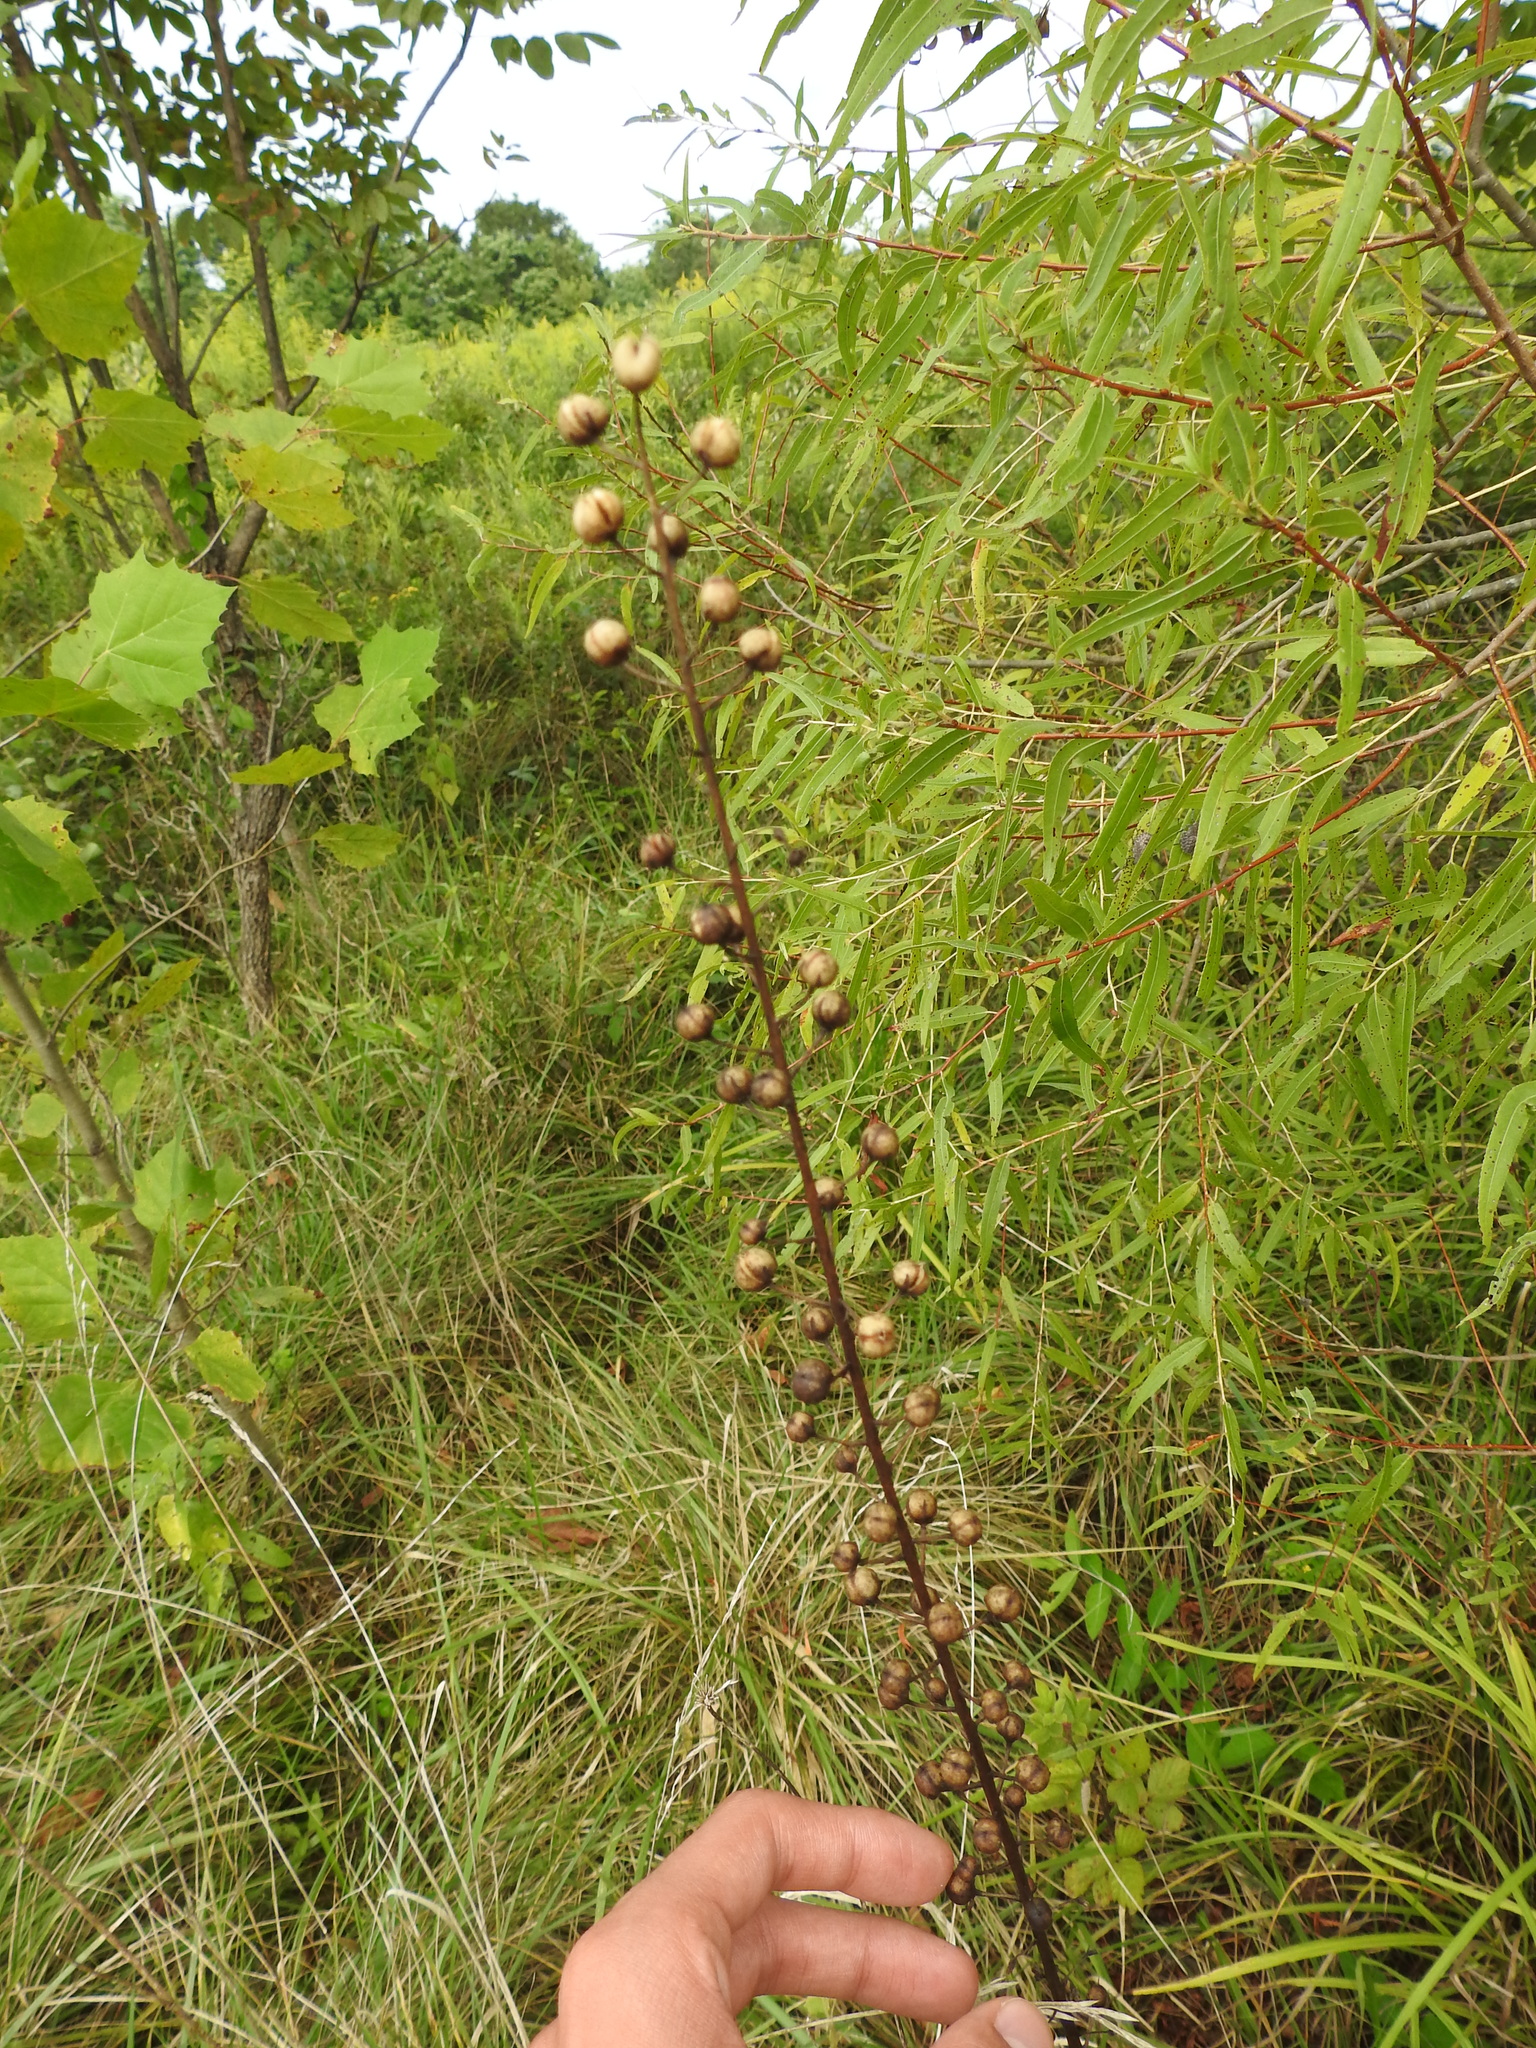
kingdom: Plantae
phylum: Tracheophyta
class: Magnoliopsida
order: Lamiales
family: Scrophulariaceae
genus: Verbascum
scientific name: Verbascum blattaria
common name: Moth mullein
